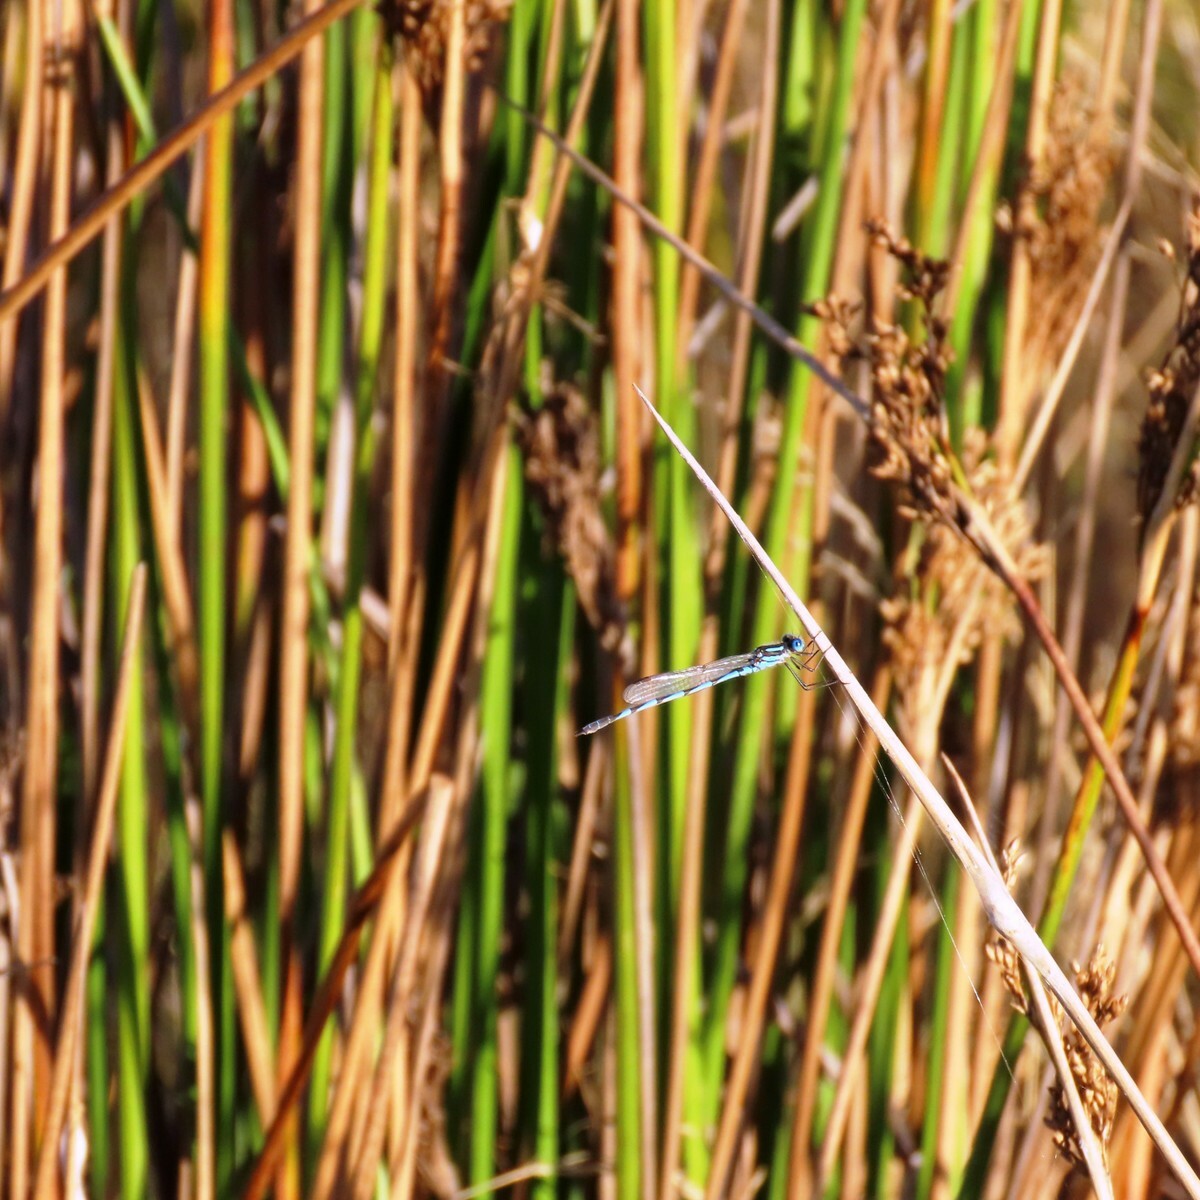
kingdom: Animalia
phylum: Arthropoda
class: Insecta
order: Odonata
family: Lestidae
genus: Austrolestes
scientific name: Austrolestes annulosus
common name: Blue ringtail
